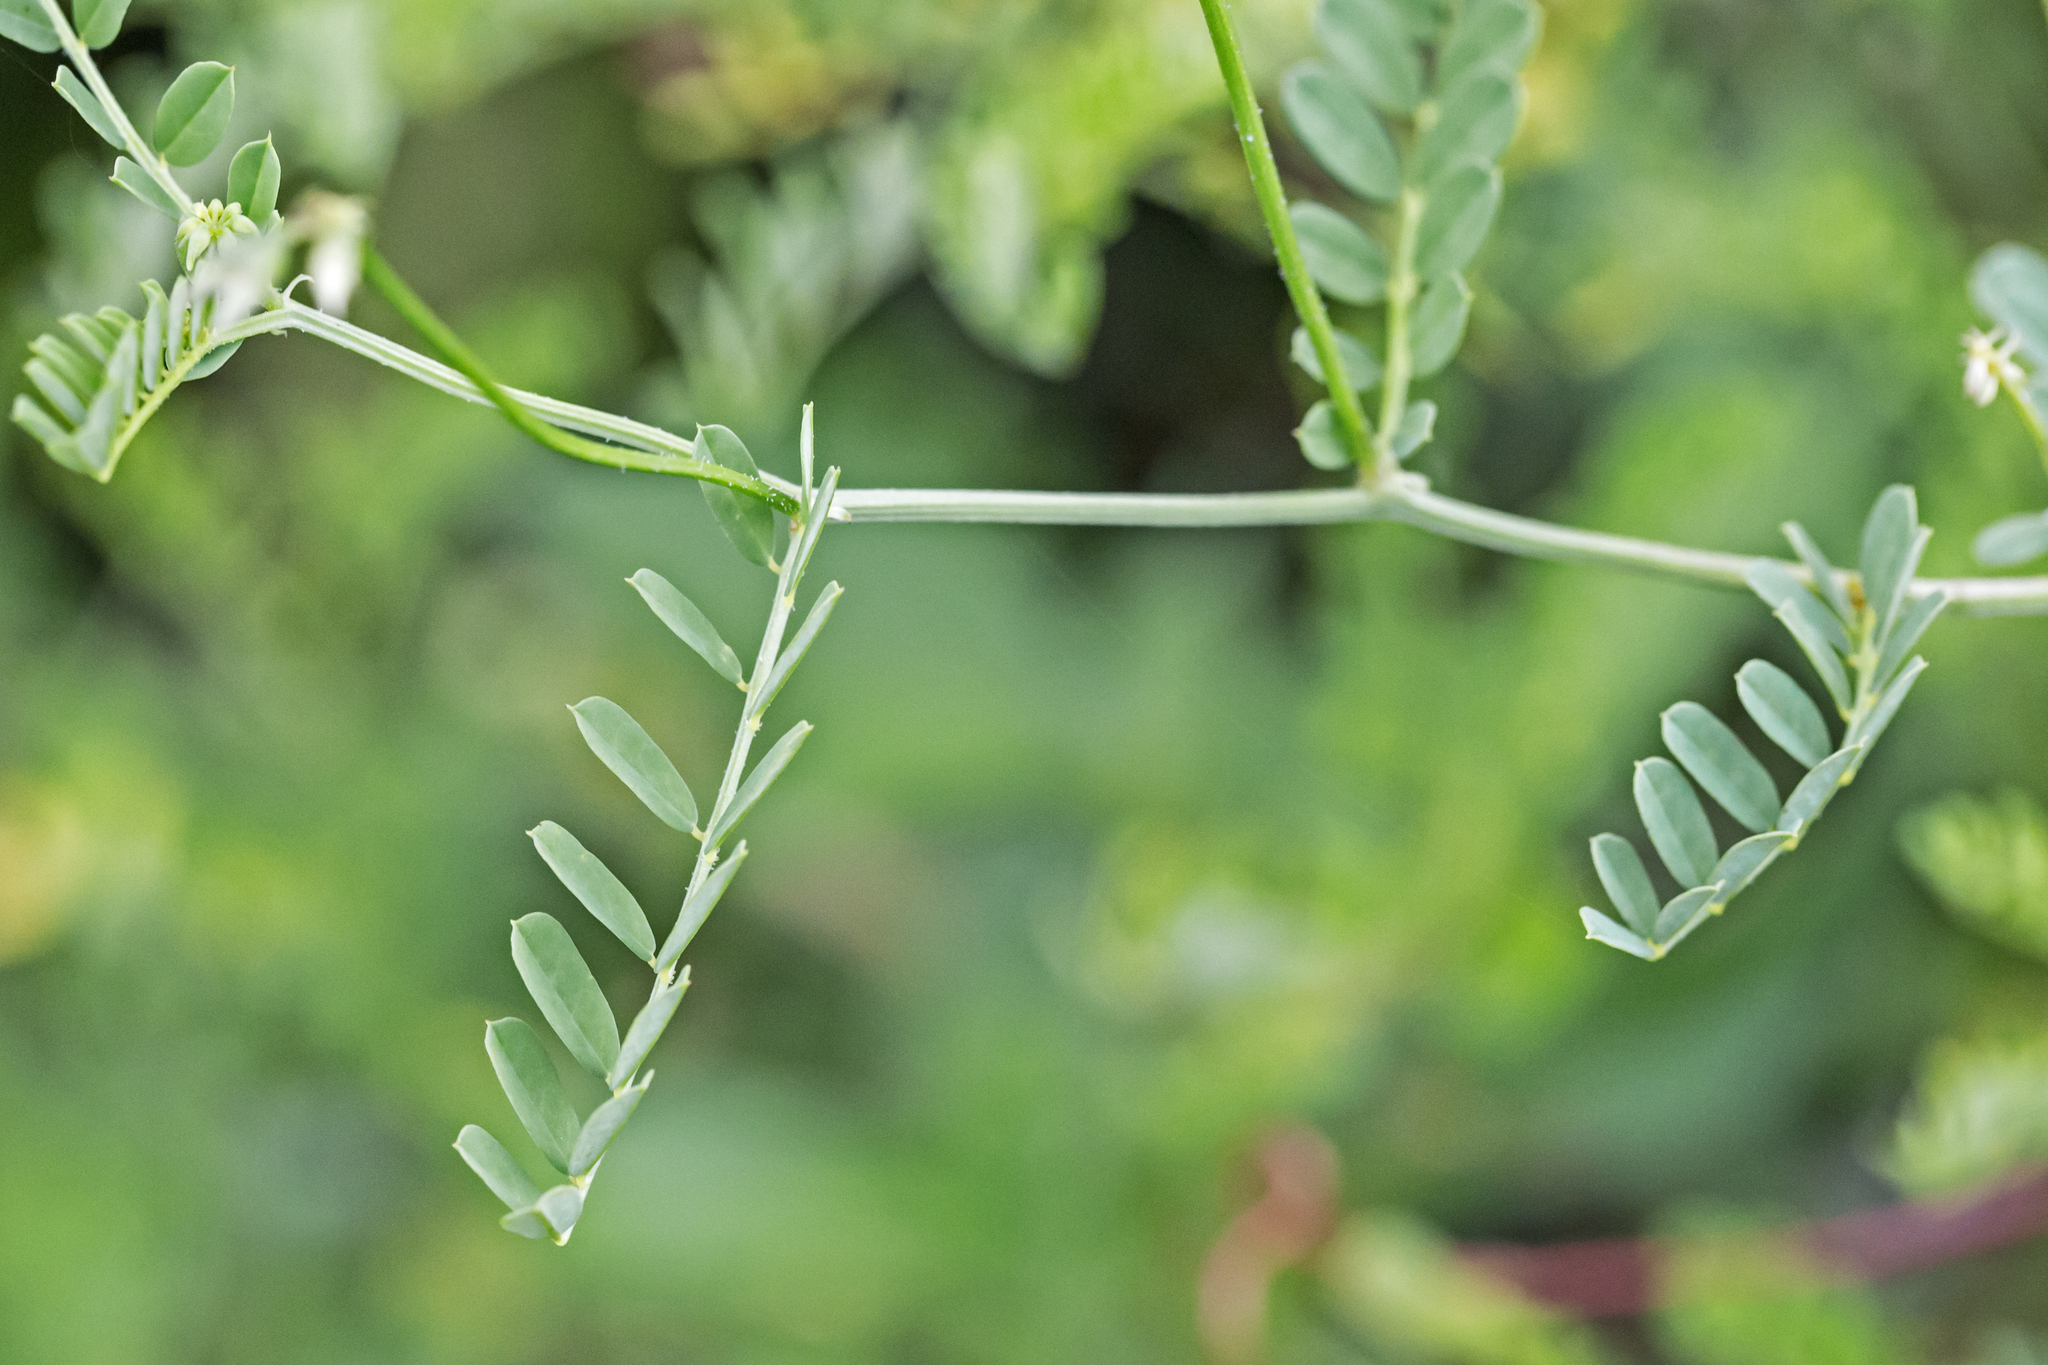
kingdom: Plantae
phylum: Tracheophyta
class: Magnoliopsida
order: Fabales
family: Fabaceae
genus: Coronilla
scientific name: Coronilla varia
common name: Crownvetch
